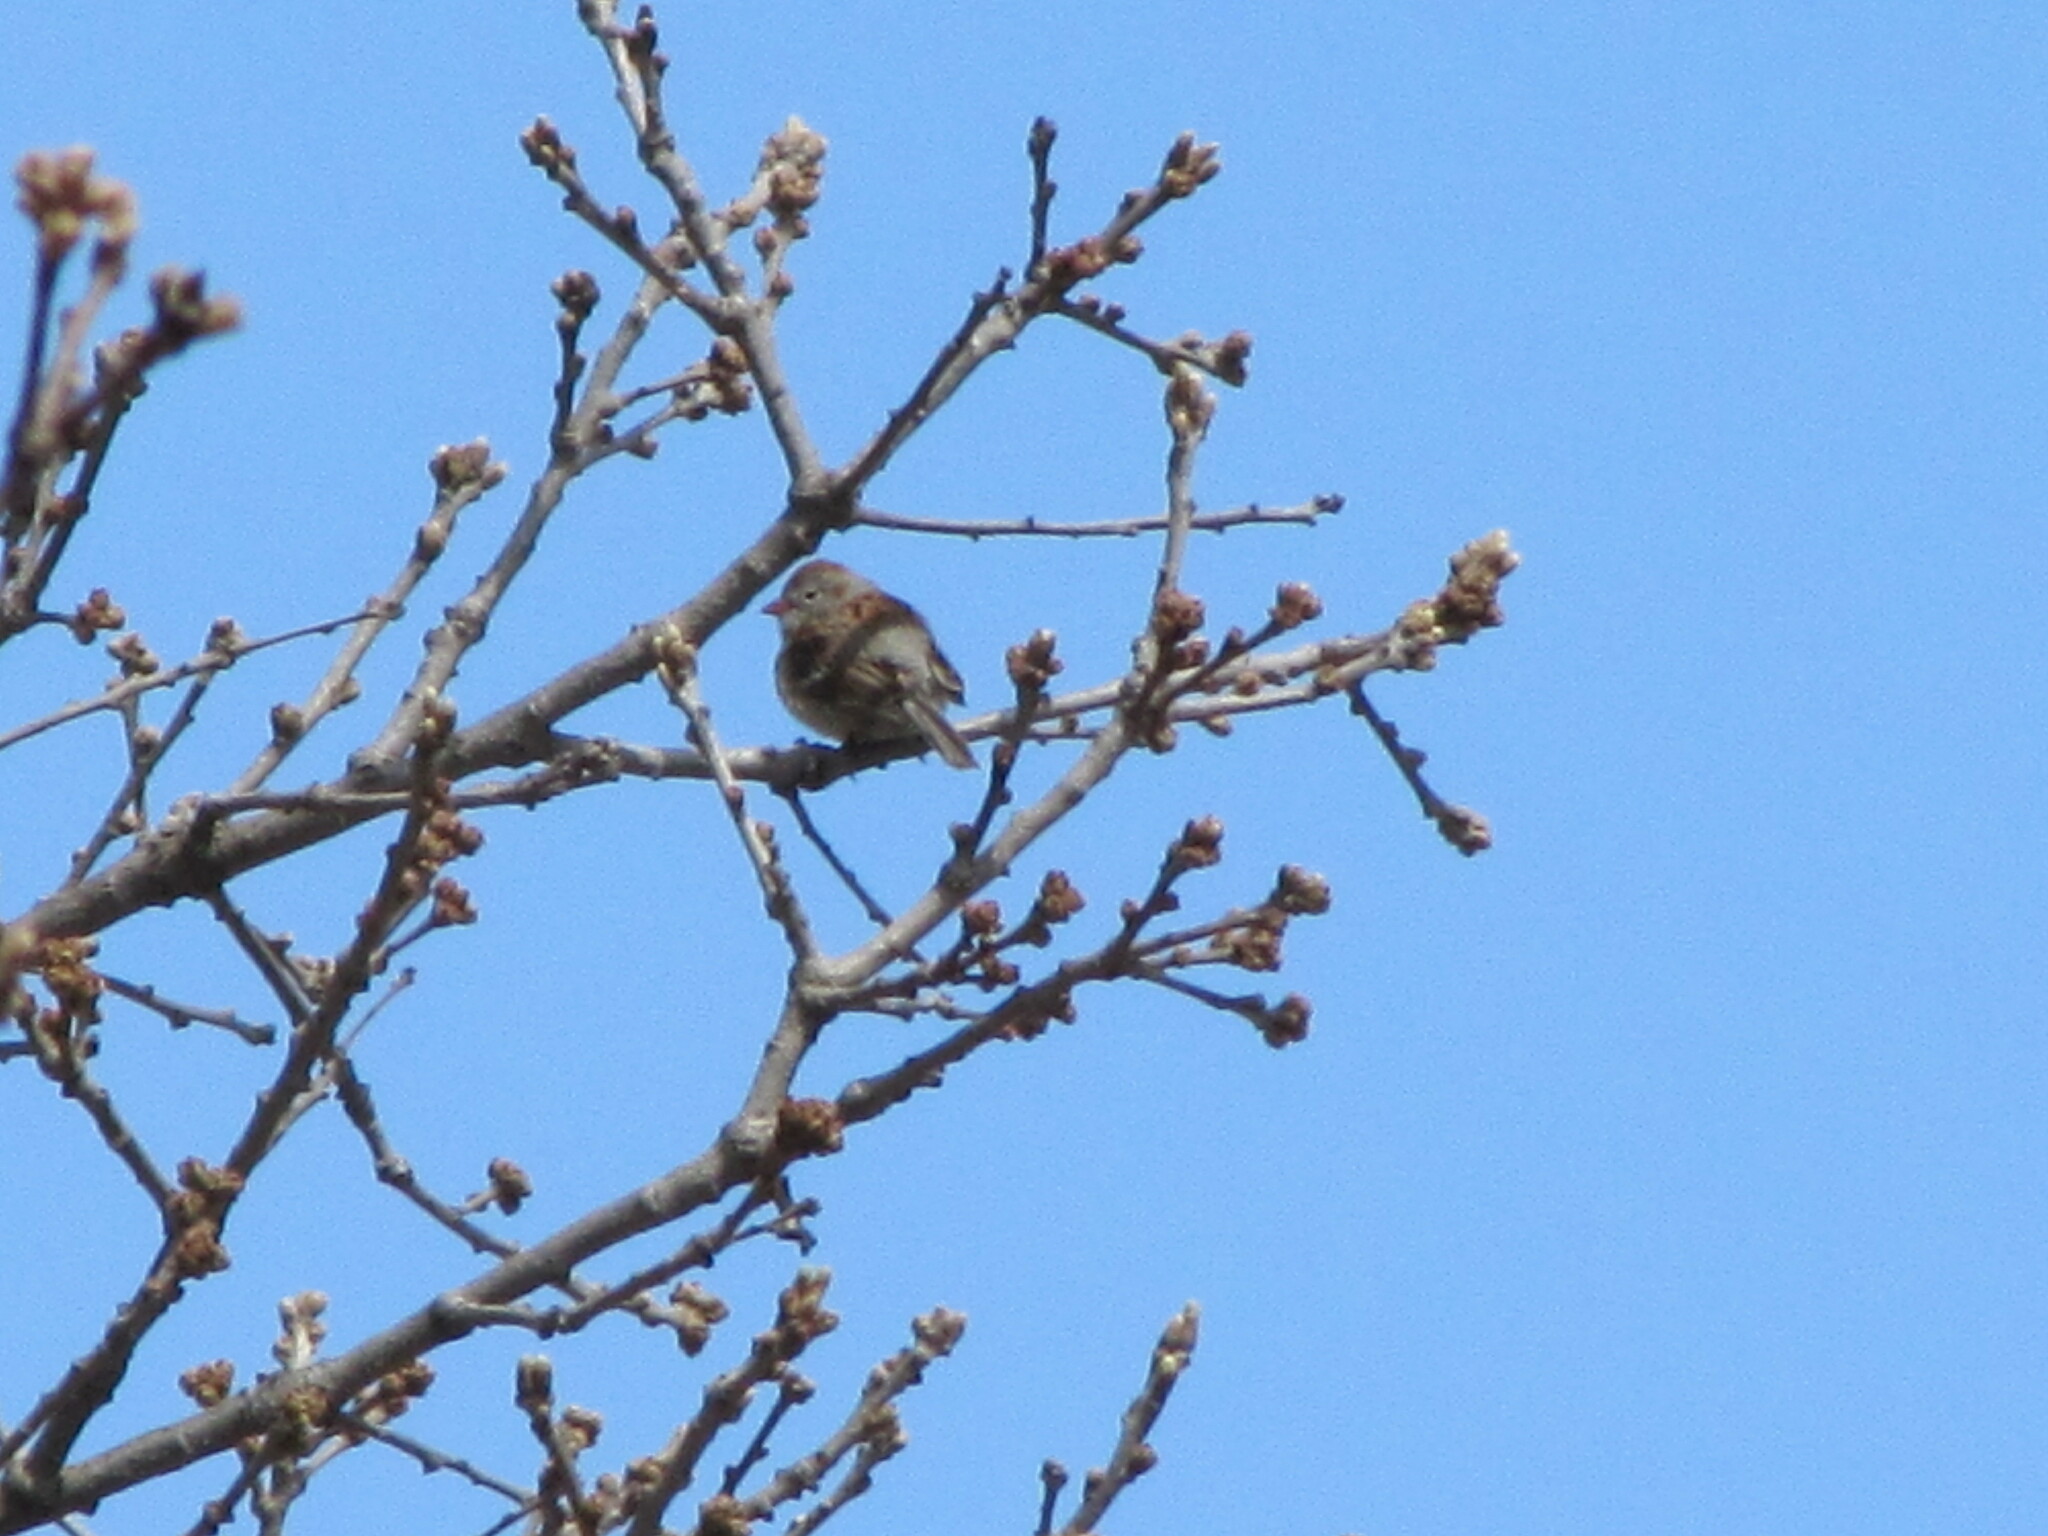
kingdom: Animalia
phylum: Chordata
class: Aves
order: Passeriformes
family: Passerellidae
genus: Spizella
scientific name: Spizella pusilla
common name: Field sparrow
